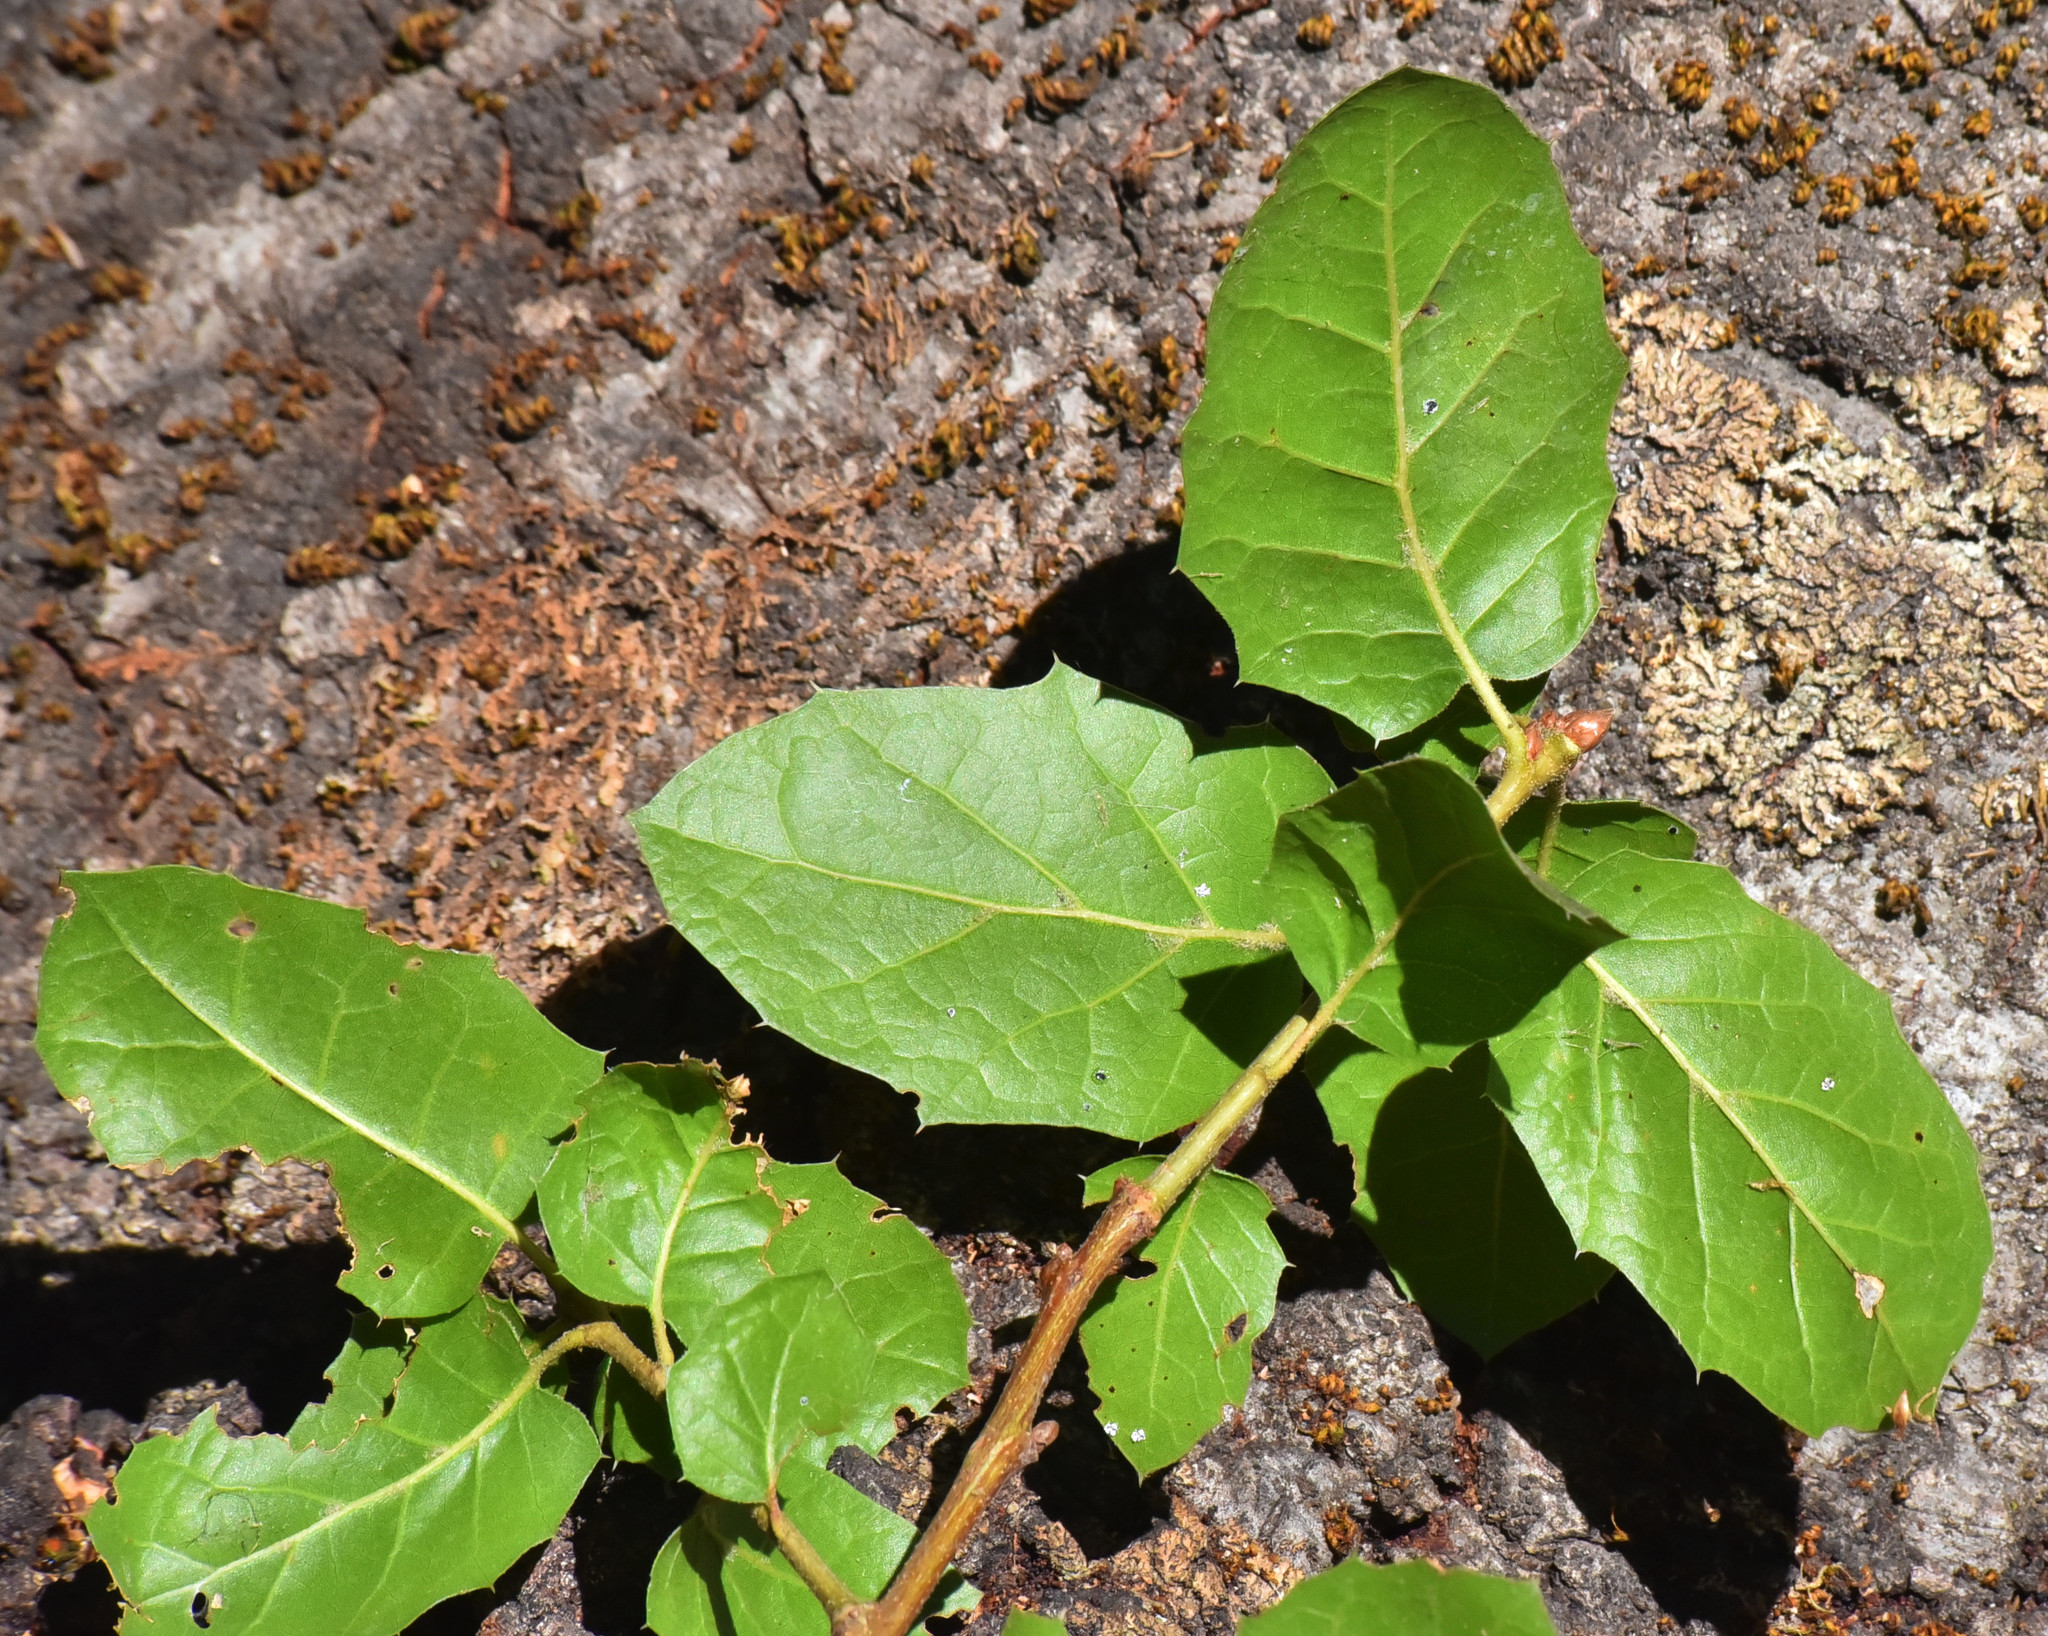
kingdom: Plantae
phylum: Tracheophyta
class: Magnoliopsida
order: Fagales
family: Fagaceae
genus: Quercus
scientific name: Quercus agrifolia
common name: California live oak
